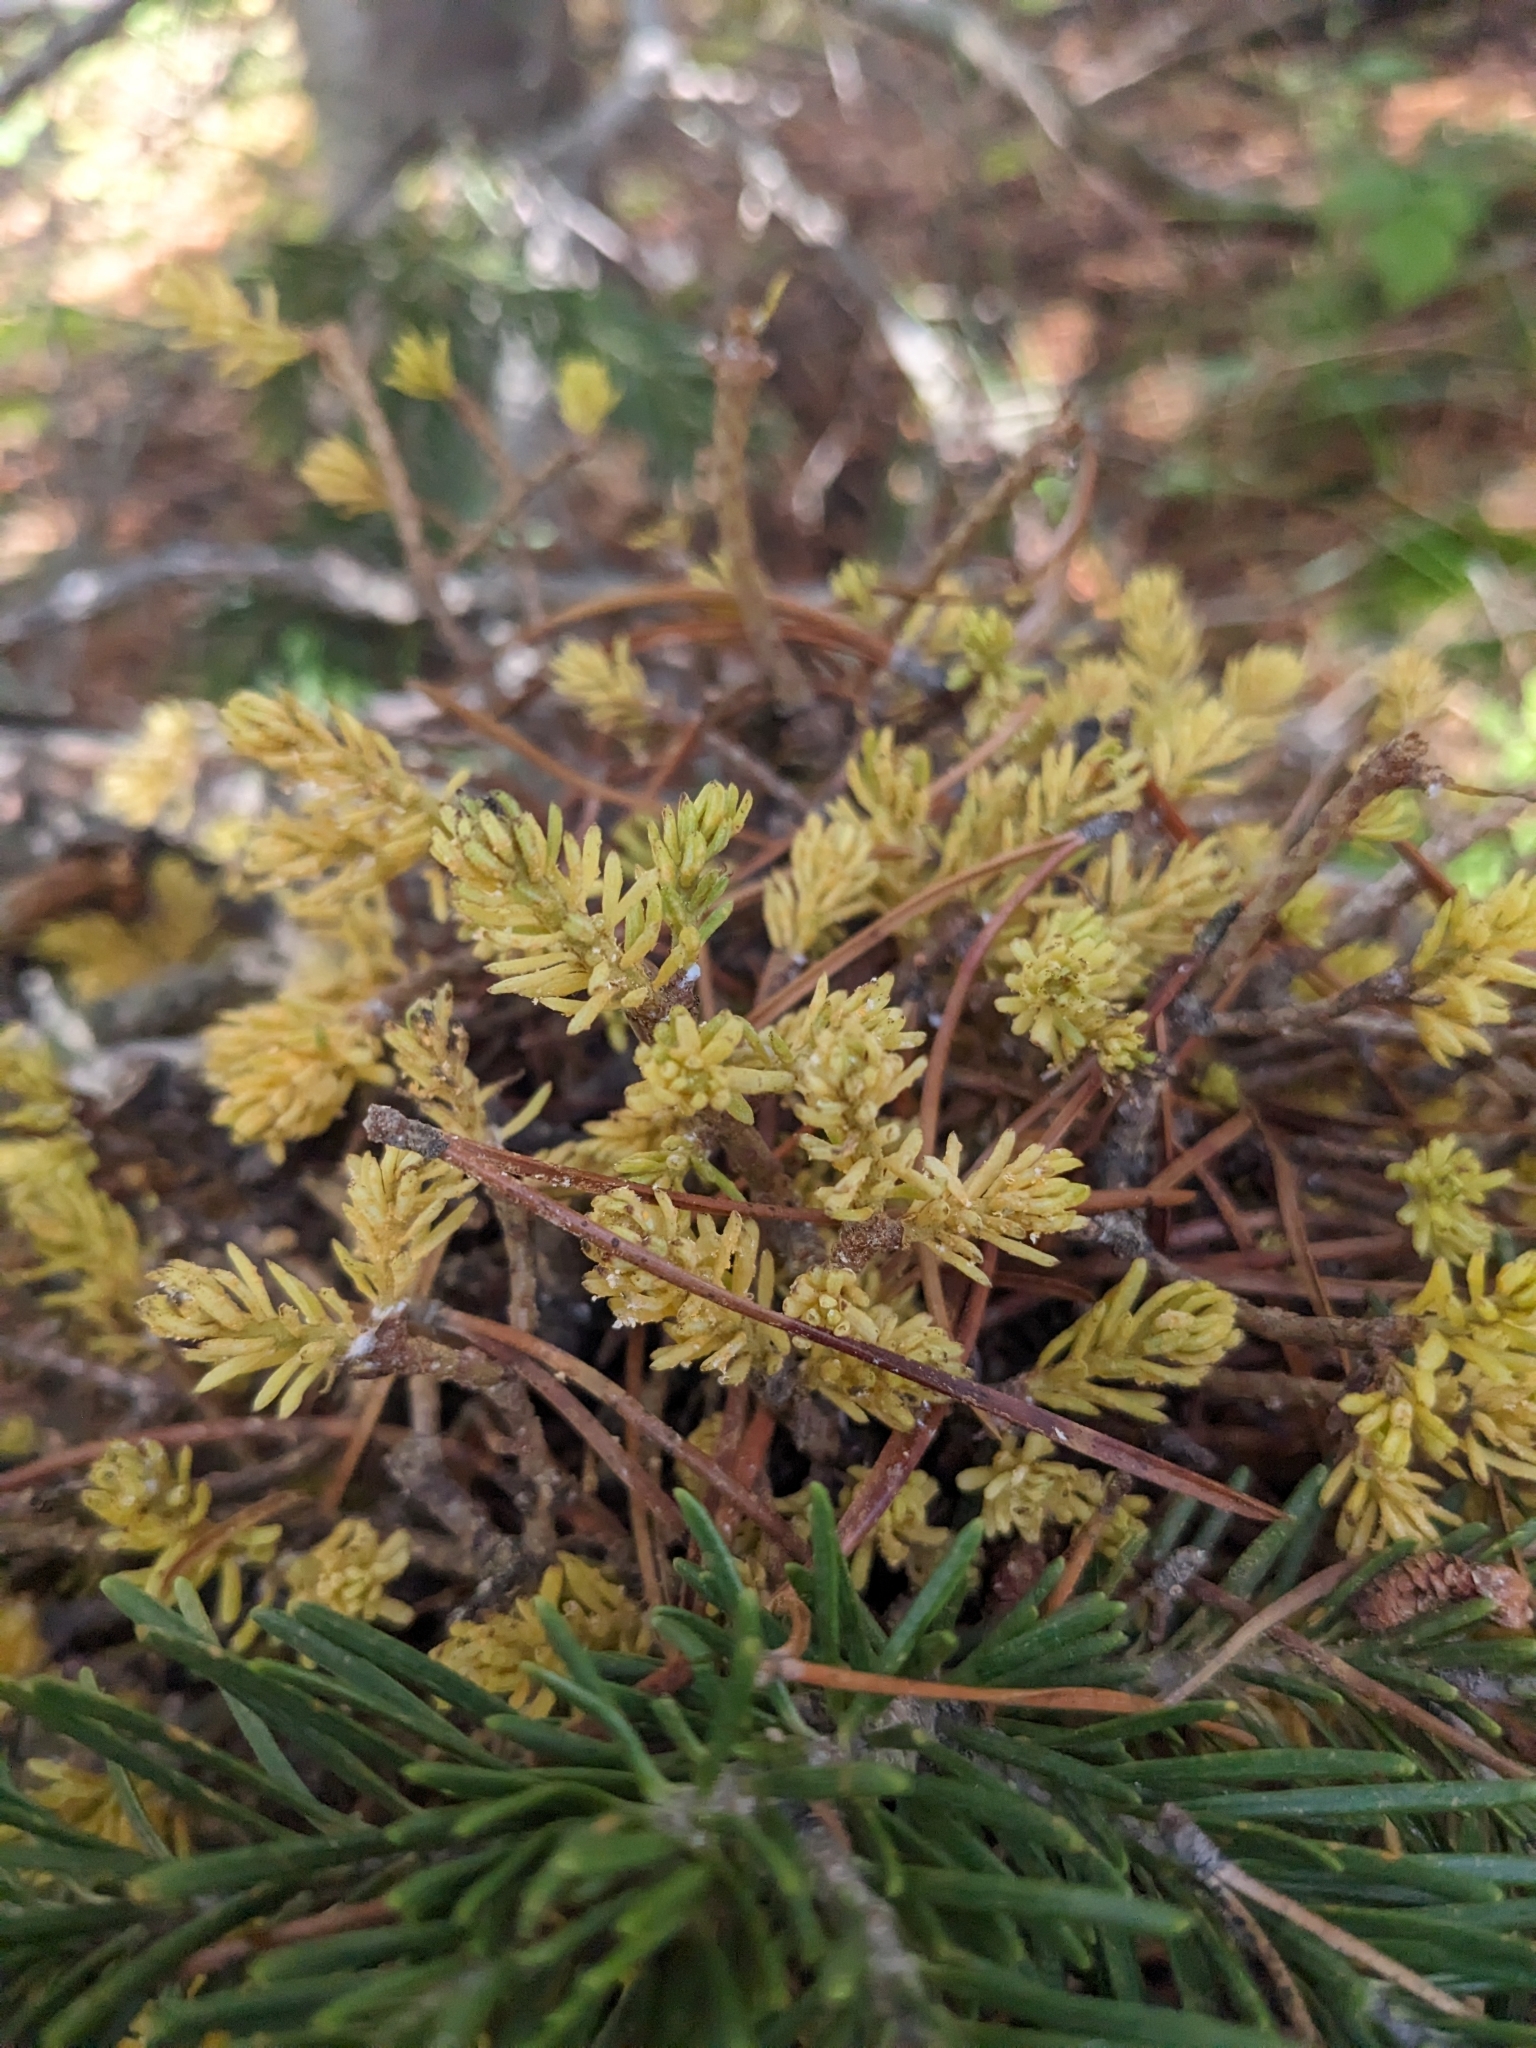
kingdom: Fungi
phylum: Basidiomycota
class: Pucciniomycetes
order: Pucciniales
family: Pucciniastraceae
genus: Melampsorella
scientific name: Melampsorella elatina
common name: Fir broom rust
